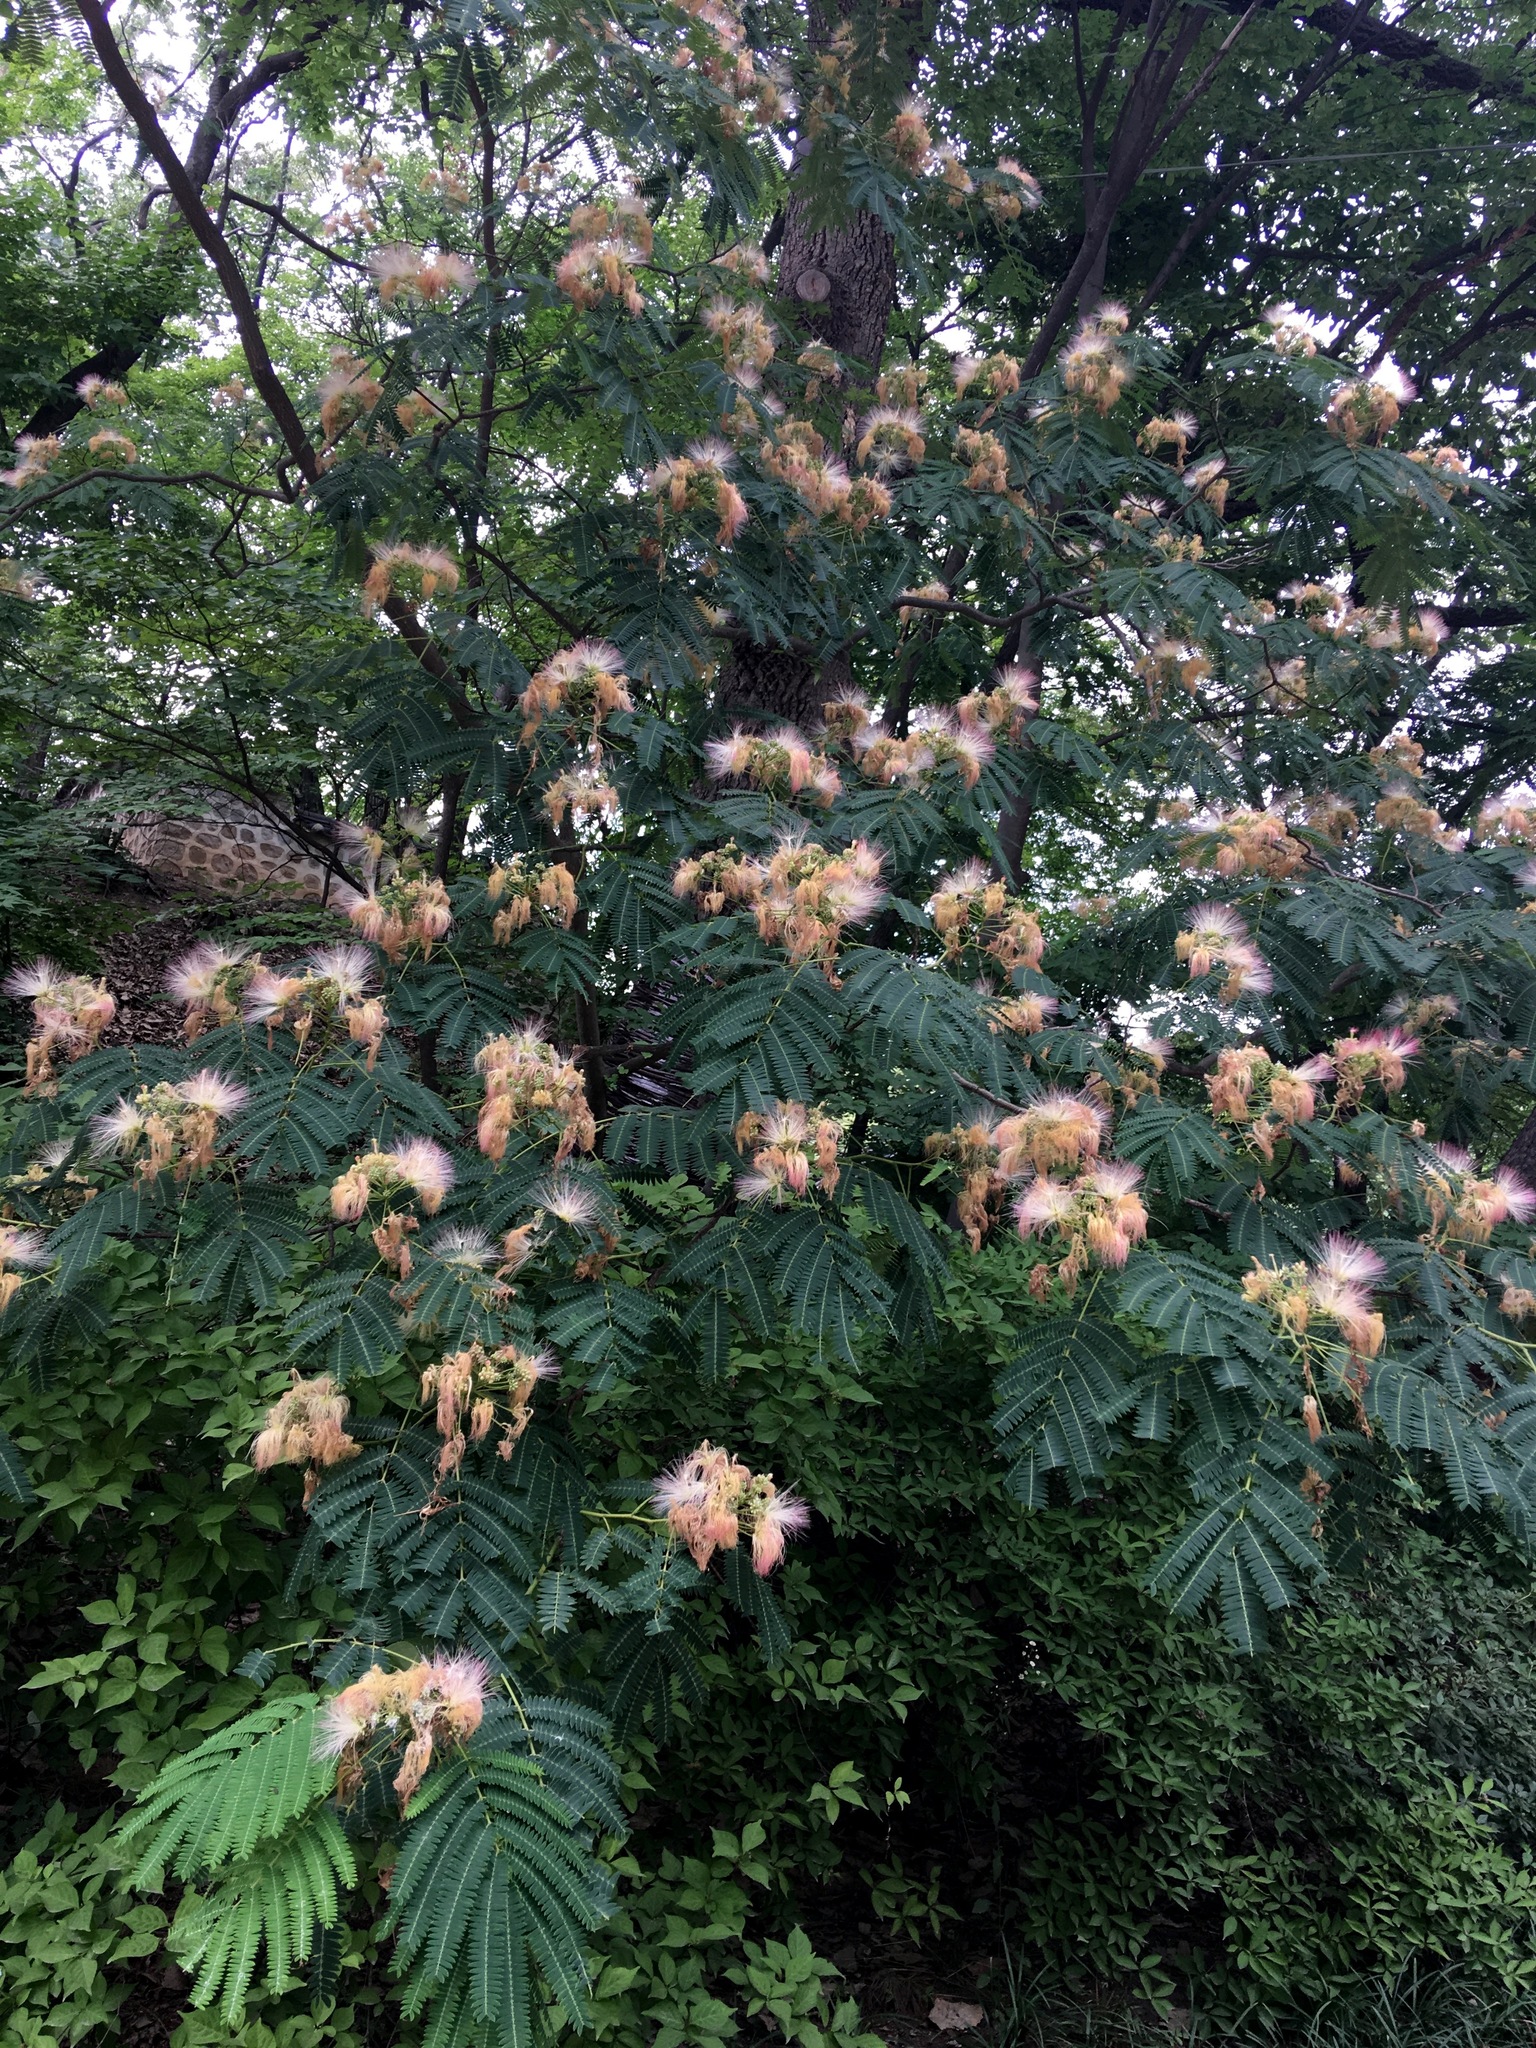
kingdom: Plantae
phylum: Tracheophyta
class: Magnoliopsida
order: Fabales
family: Fabaceae
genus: Albizia
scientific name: Albizia julibrissin
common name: Silktree
